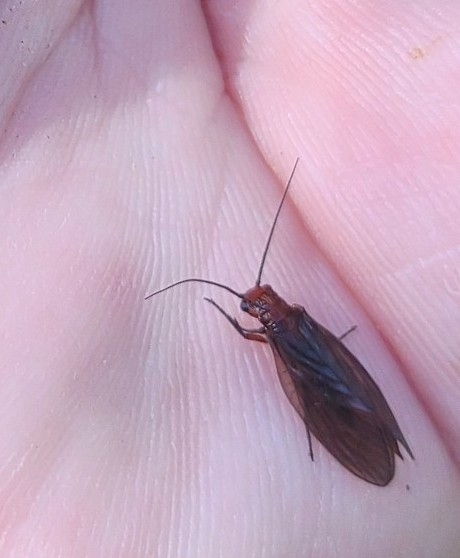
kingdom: Animalia
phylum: Arthropoda
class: Insecta
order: Megaloptera
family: Sialidae
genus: Protosialis
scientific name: Protosialis americana
